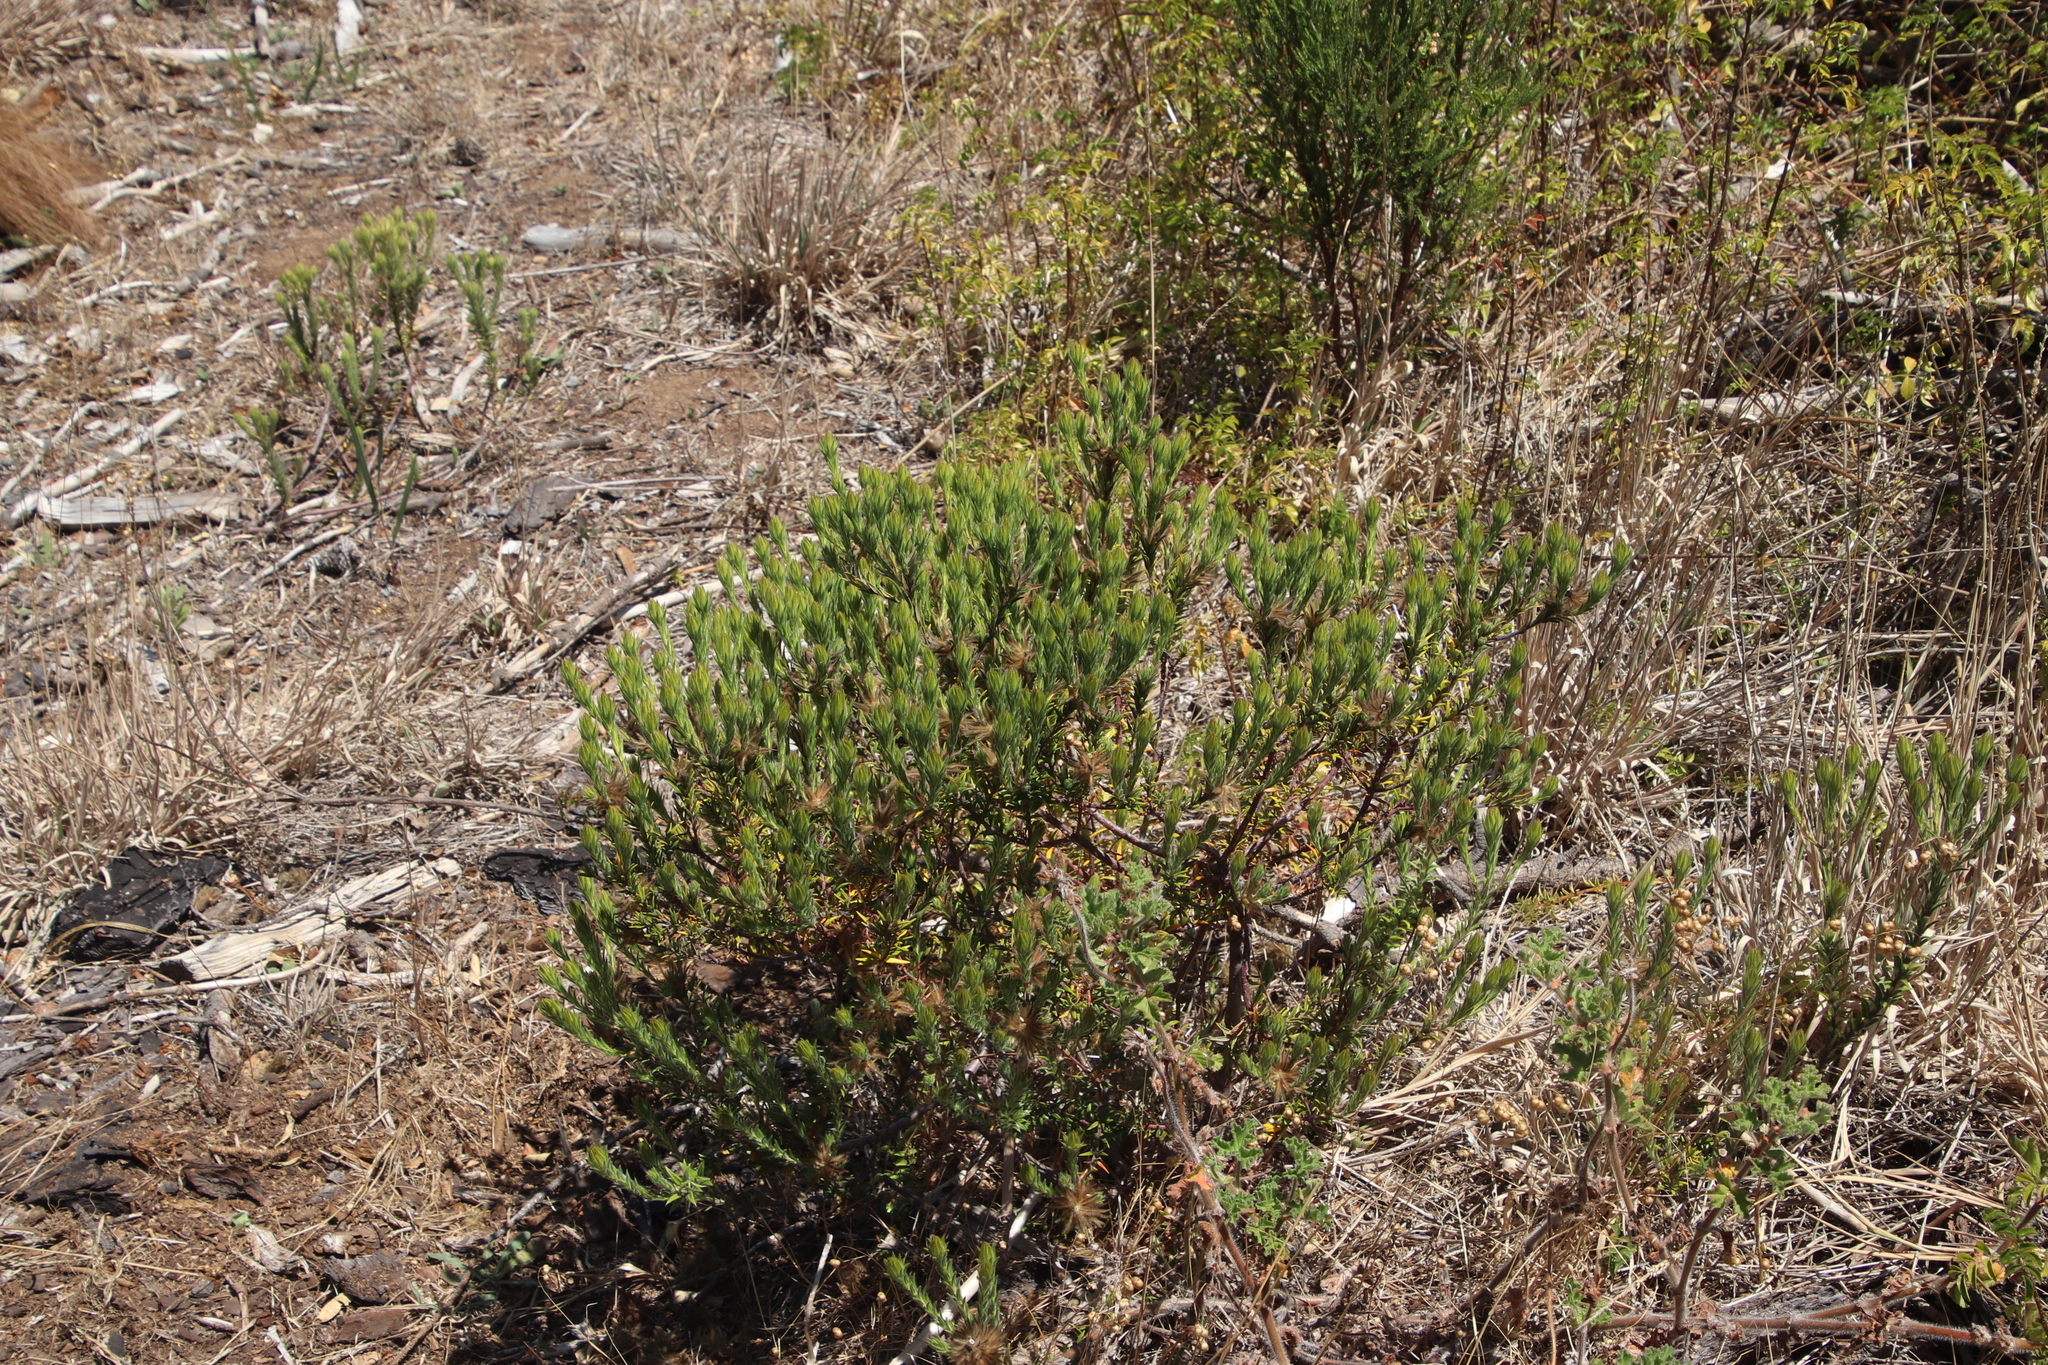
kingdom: Plantae
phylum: Tracheophyta
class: Magnoliopsida
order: Rosales
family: Rhamnaceae
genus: Phylica
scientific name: Phylica pubescens
